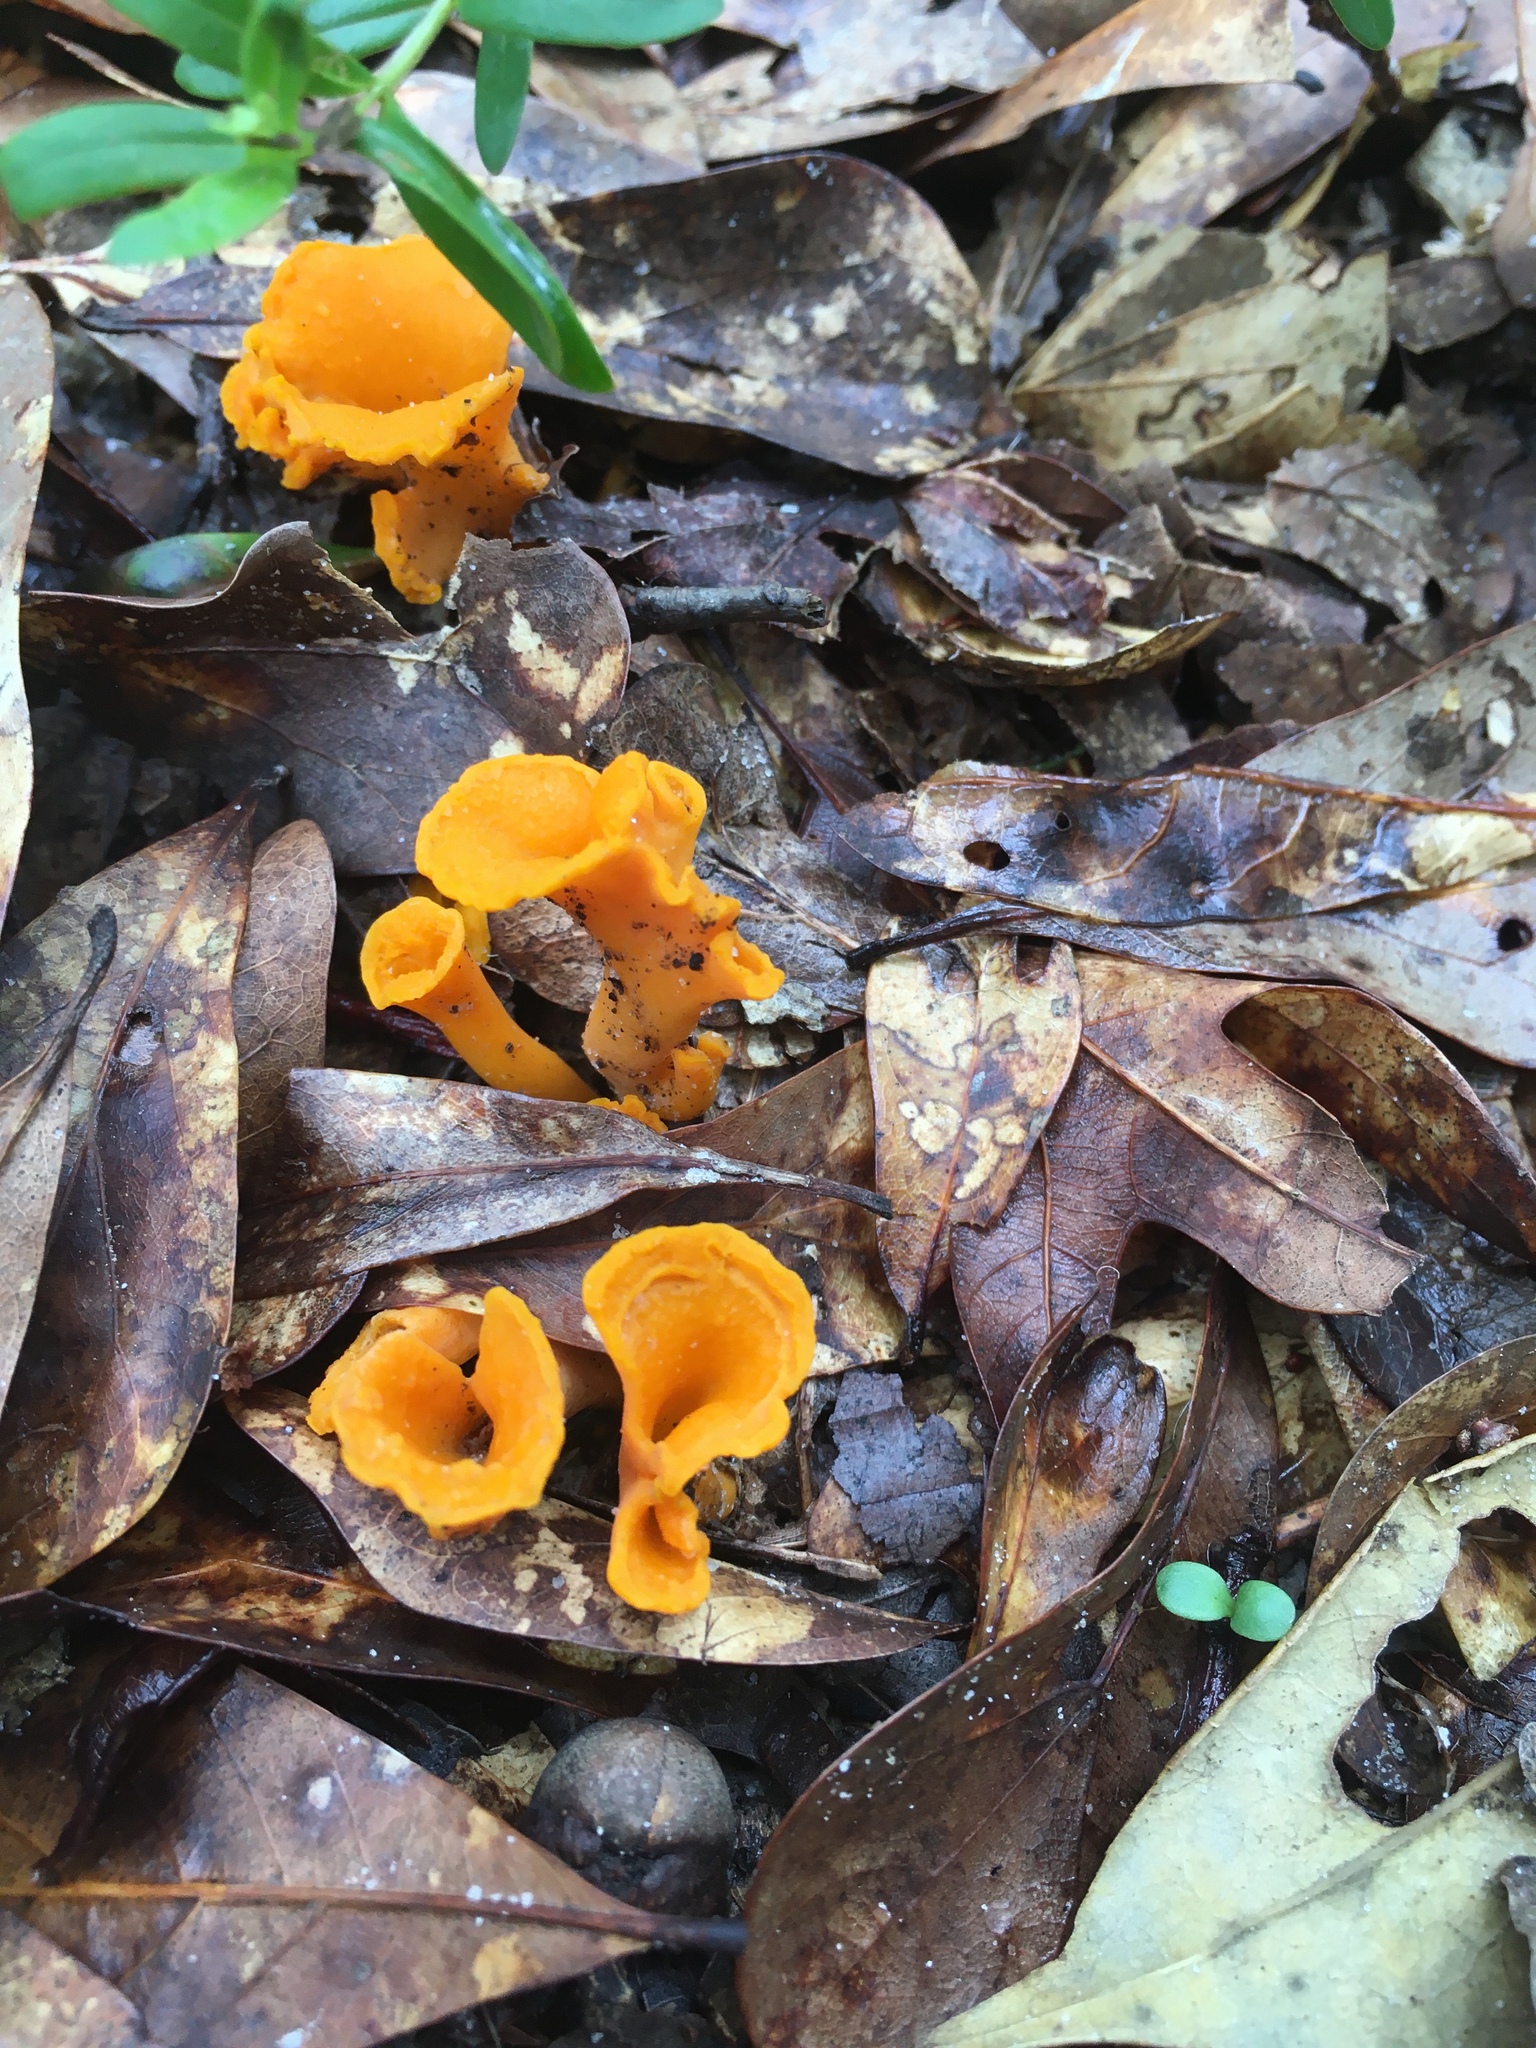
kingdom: Fungi
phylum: Basidiomycota
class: Agaricomycetes
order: Cantharellales
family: Hydnaceae
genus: Cantharellus
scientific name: Cantharellus odoratus
